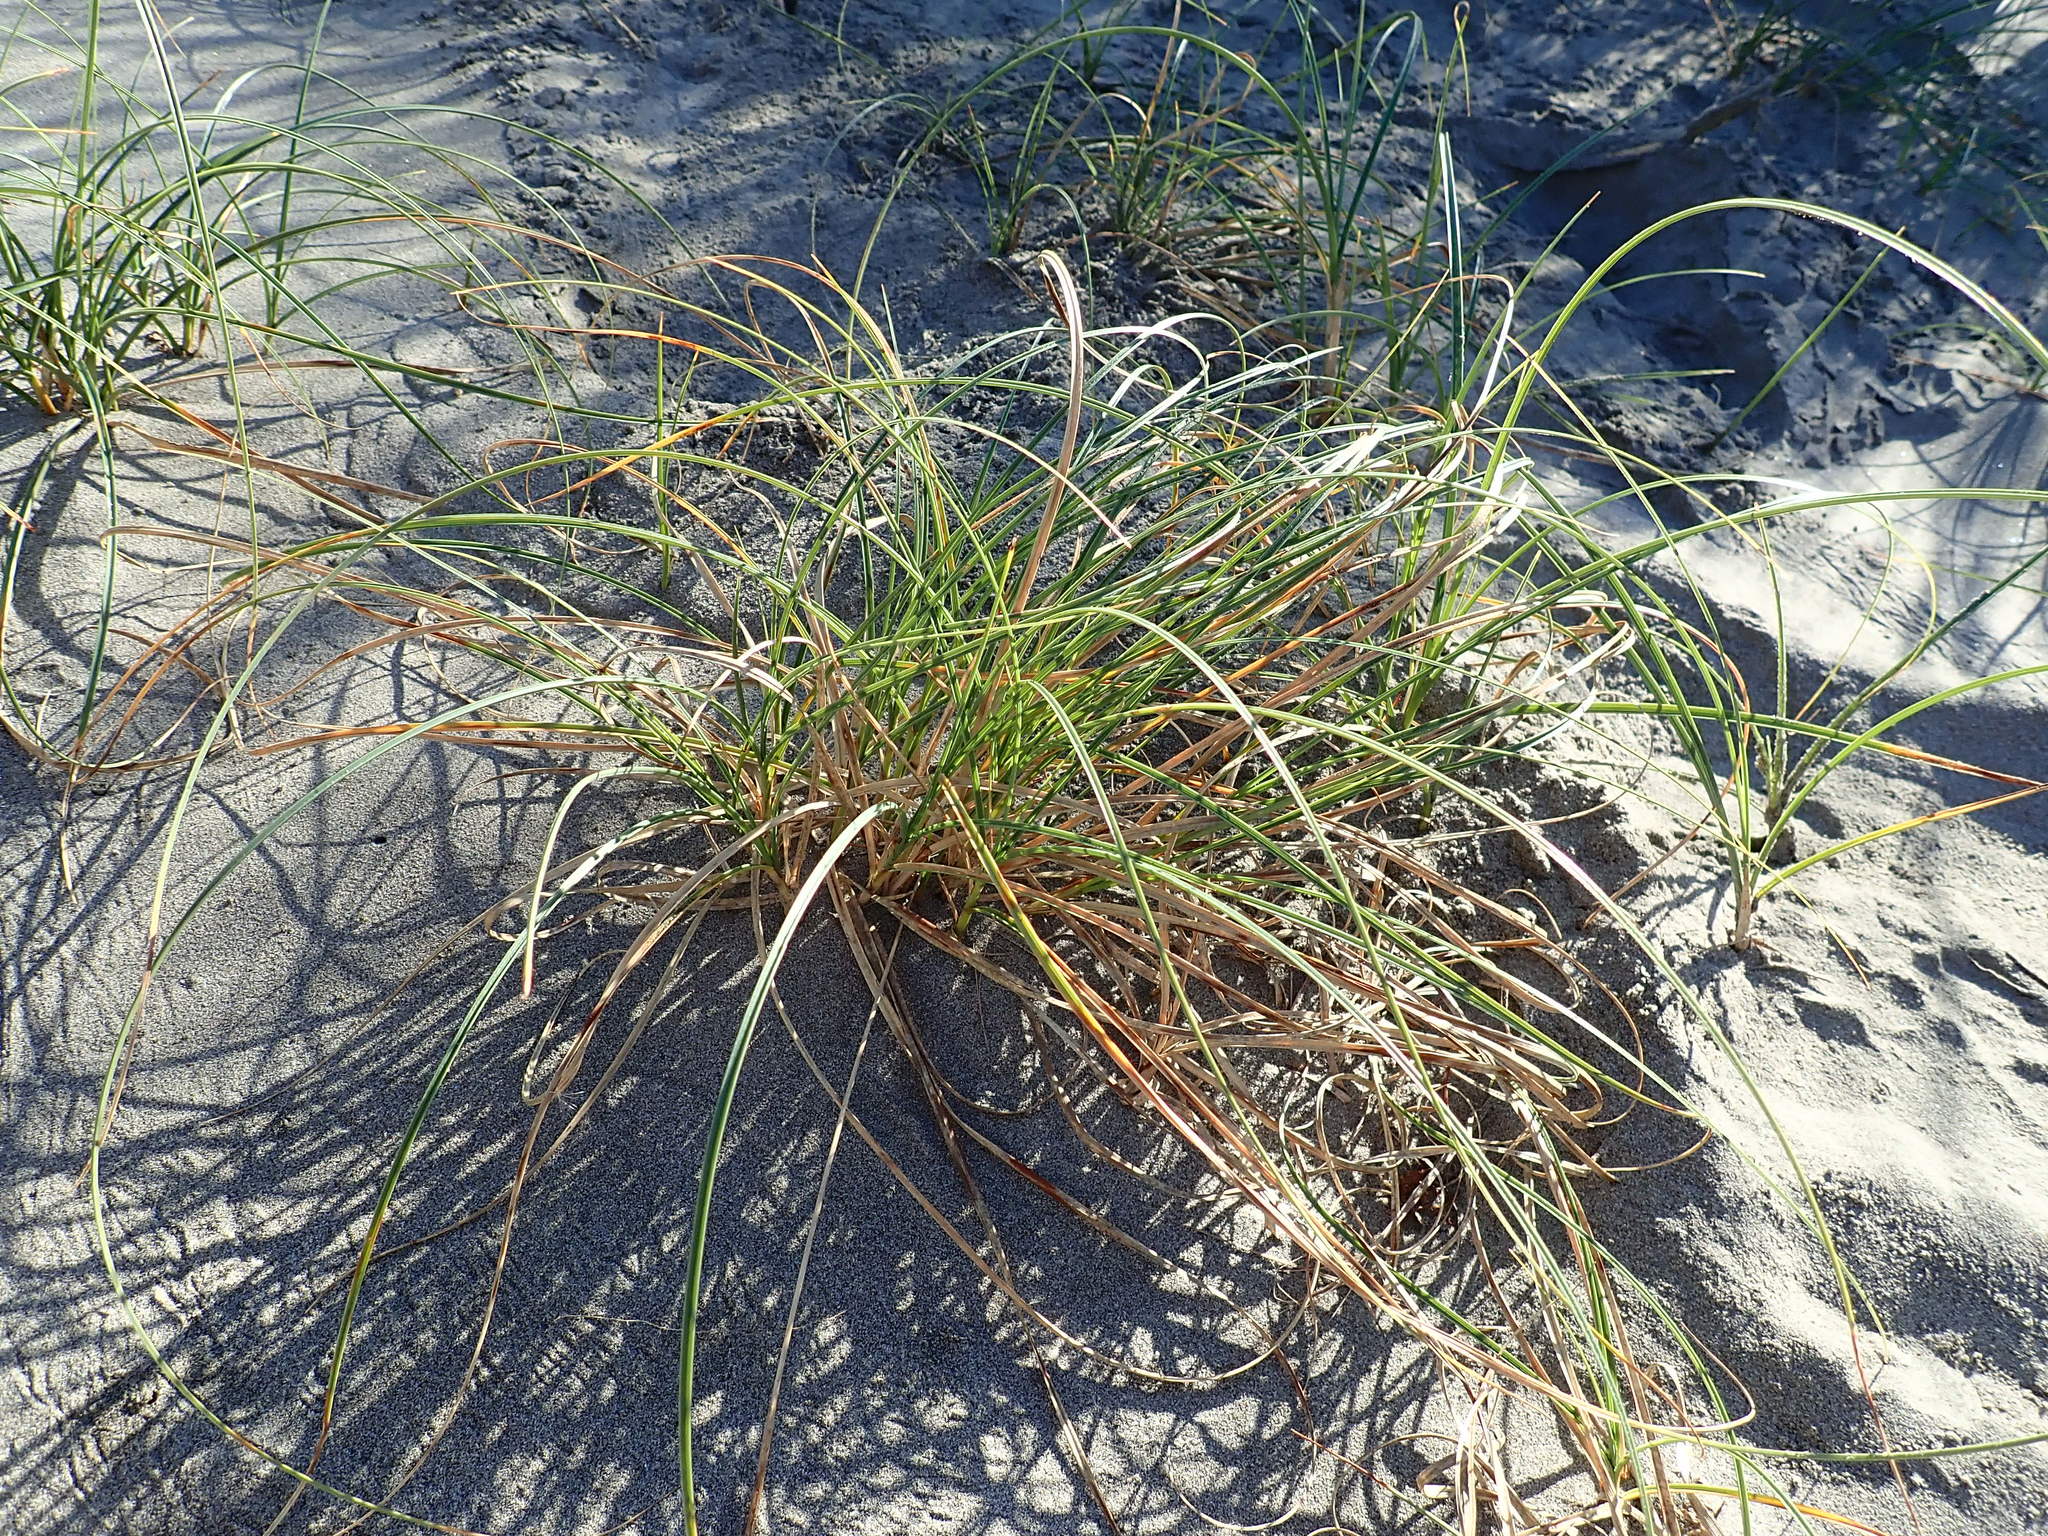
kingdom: Plantae
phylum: Tracheophyta
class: Liliopsida
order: Poales
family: Cyperaceae
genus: Carex
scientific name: Carex pumila
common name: Dwarf sedge
